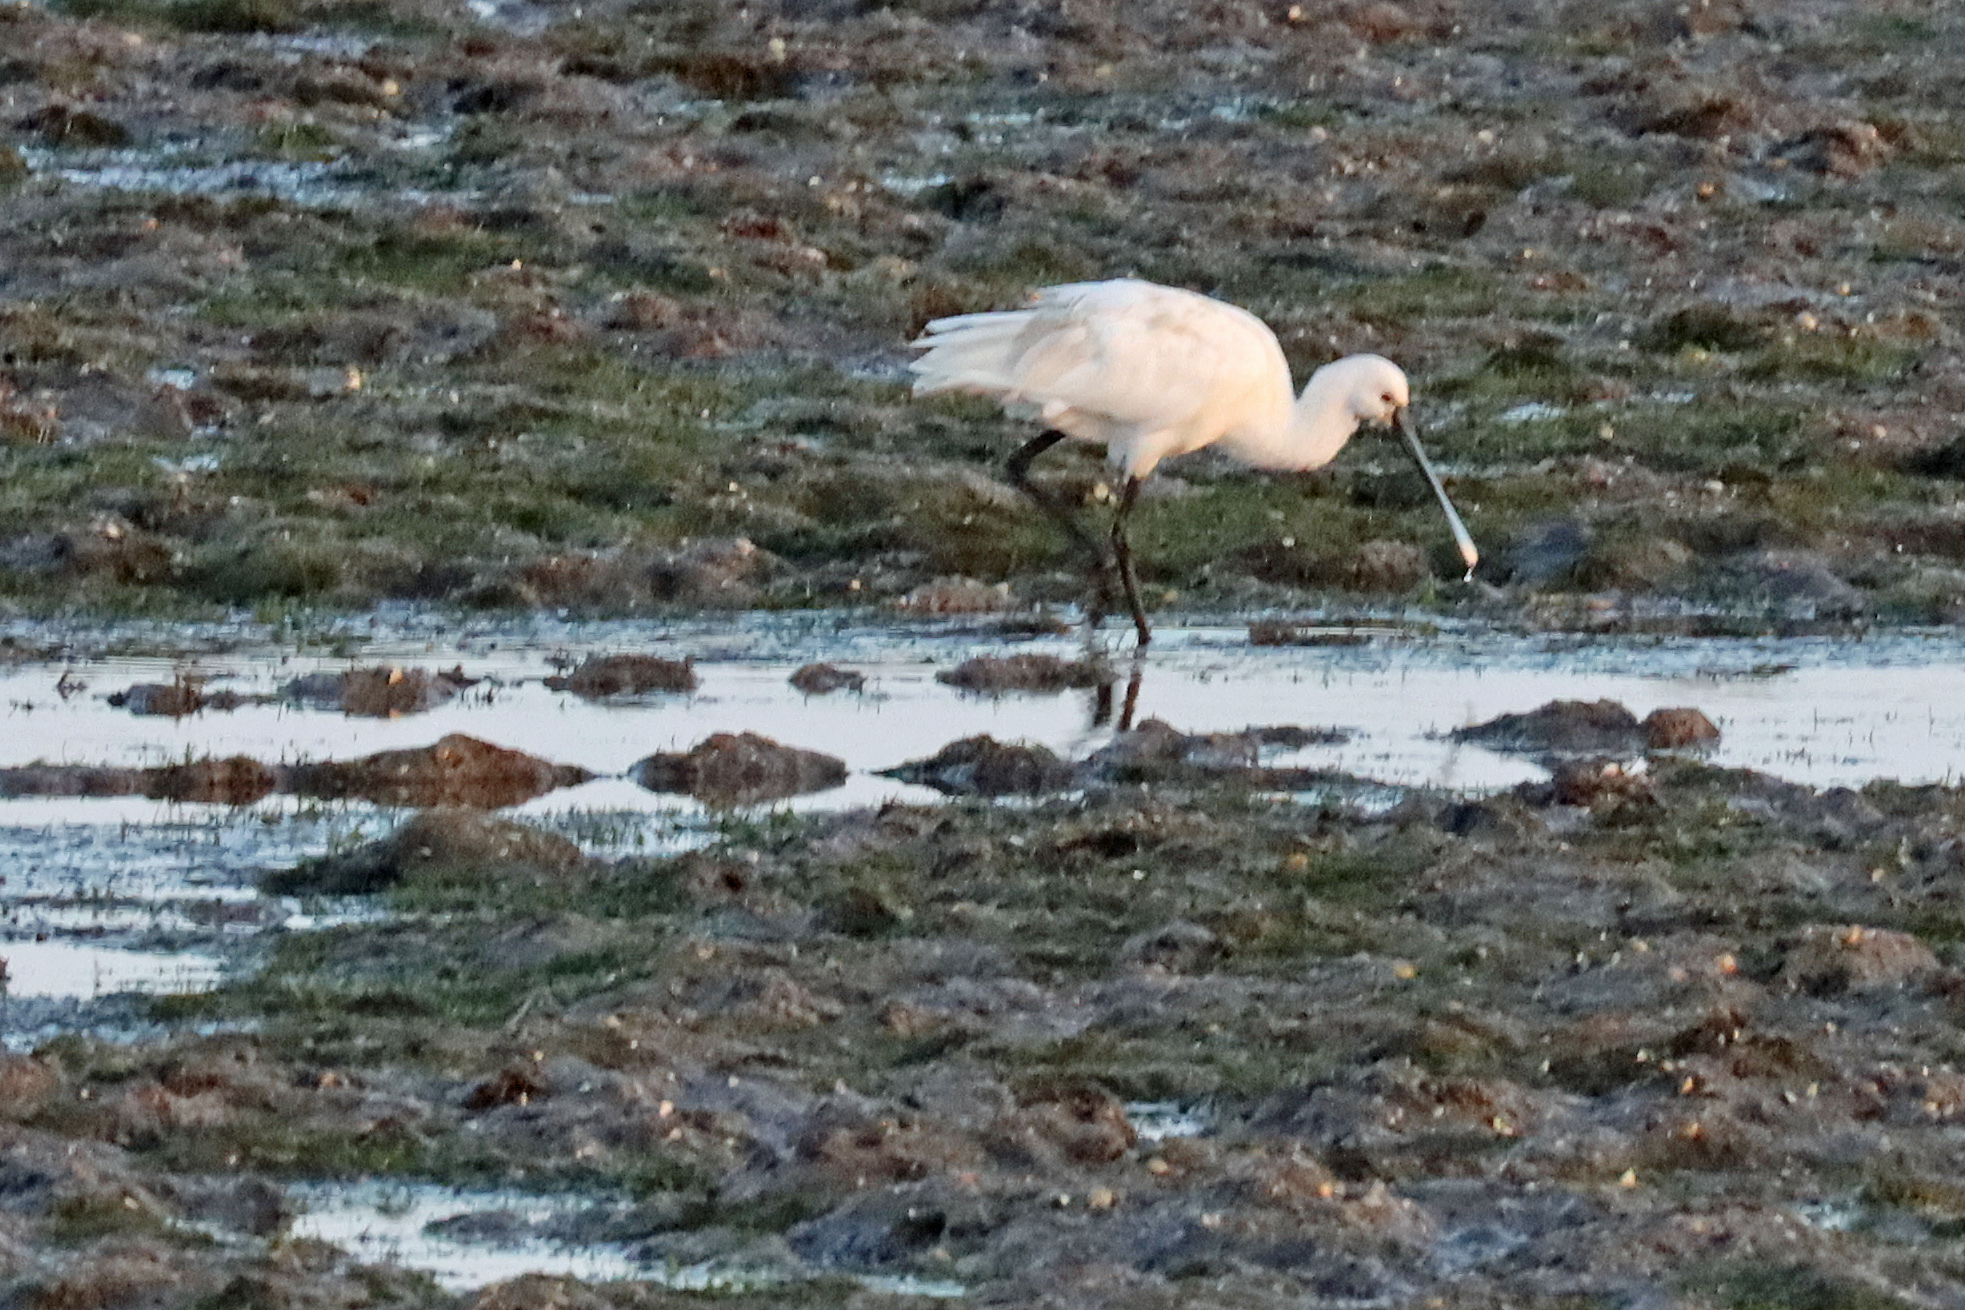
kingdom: Animalia
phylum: Chordata
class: Aves
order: Pelecaniformes
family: Threskiornithidae
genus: Platalea
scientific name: Platalea leucorodia
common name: Eurasian spoonbill
